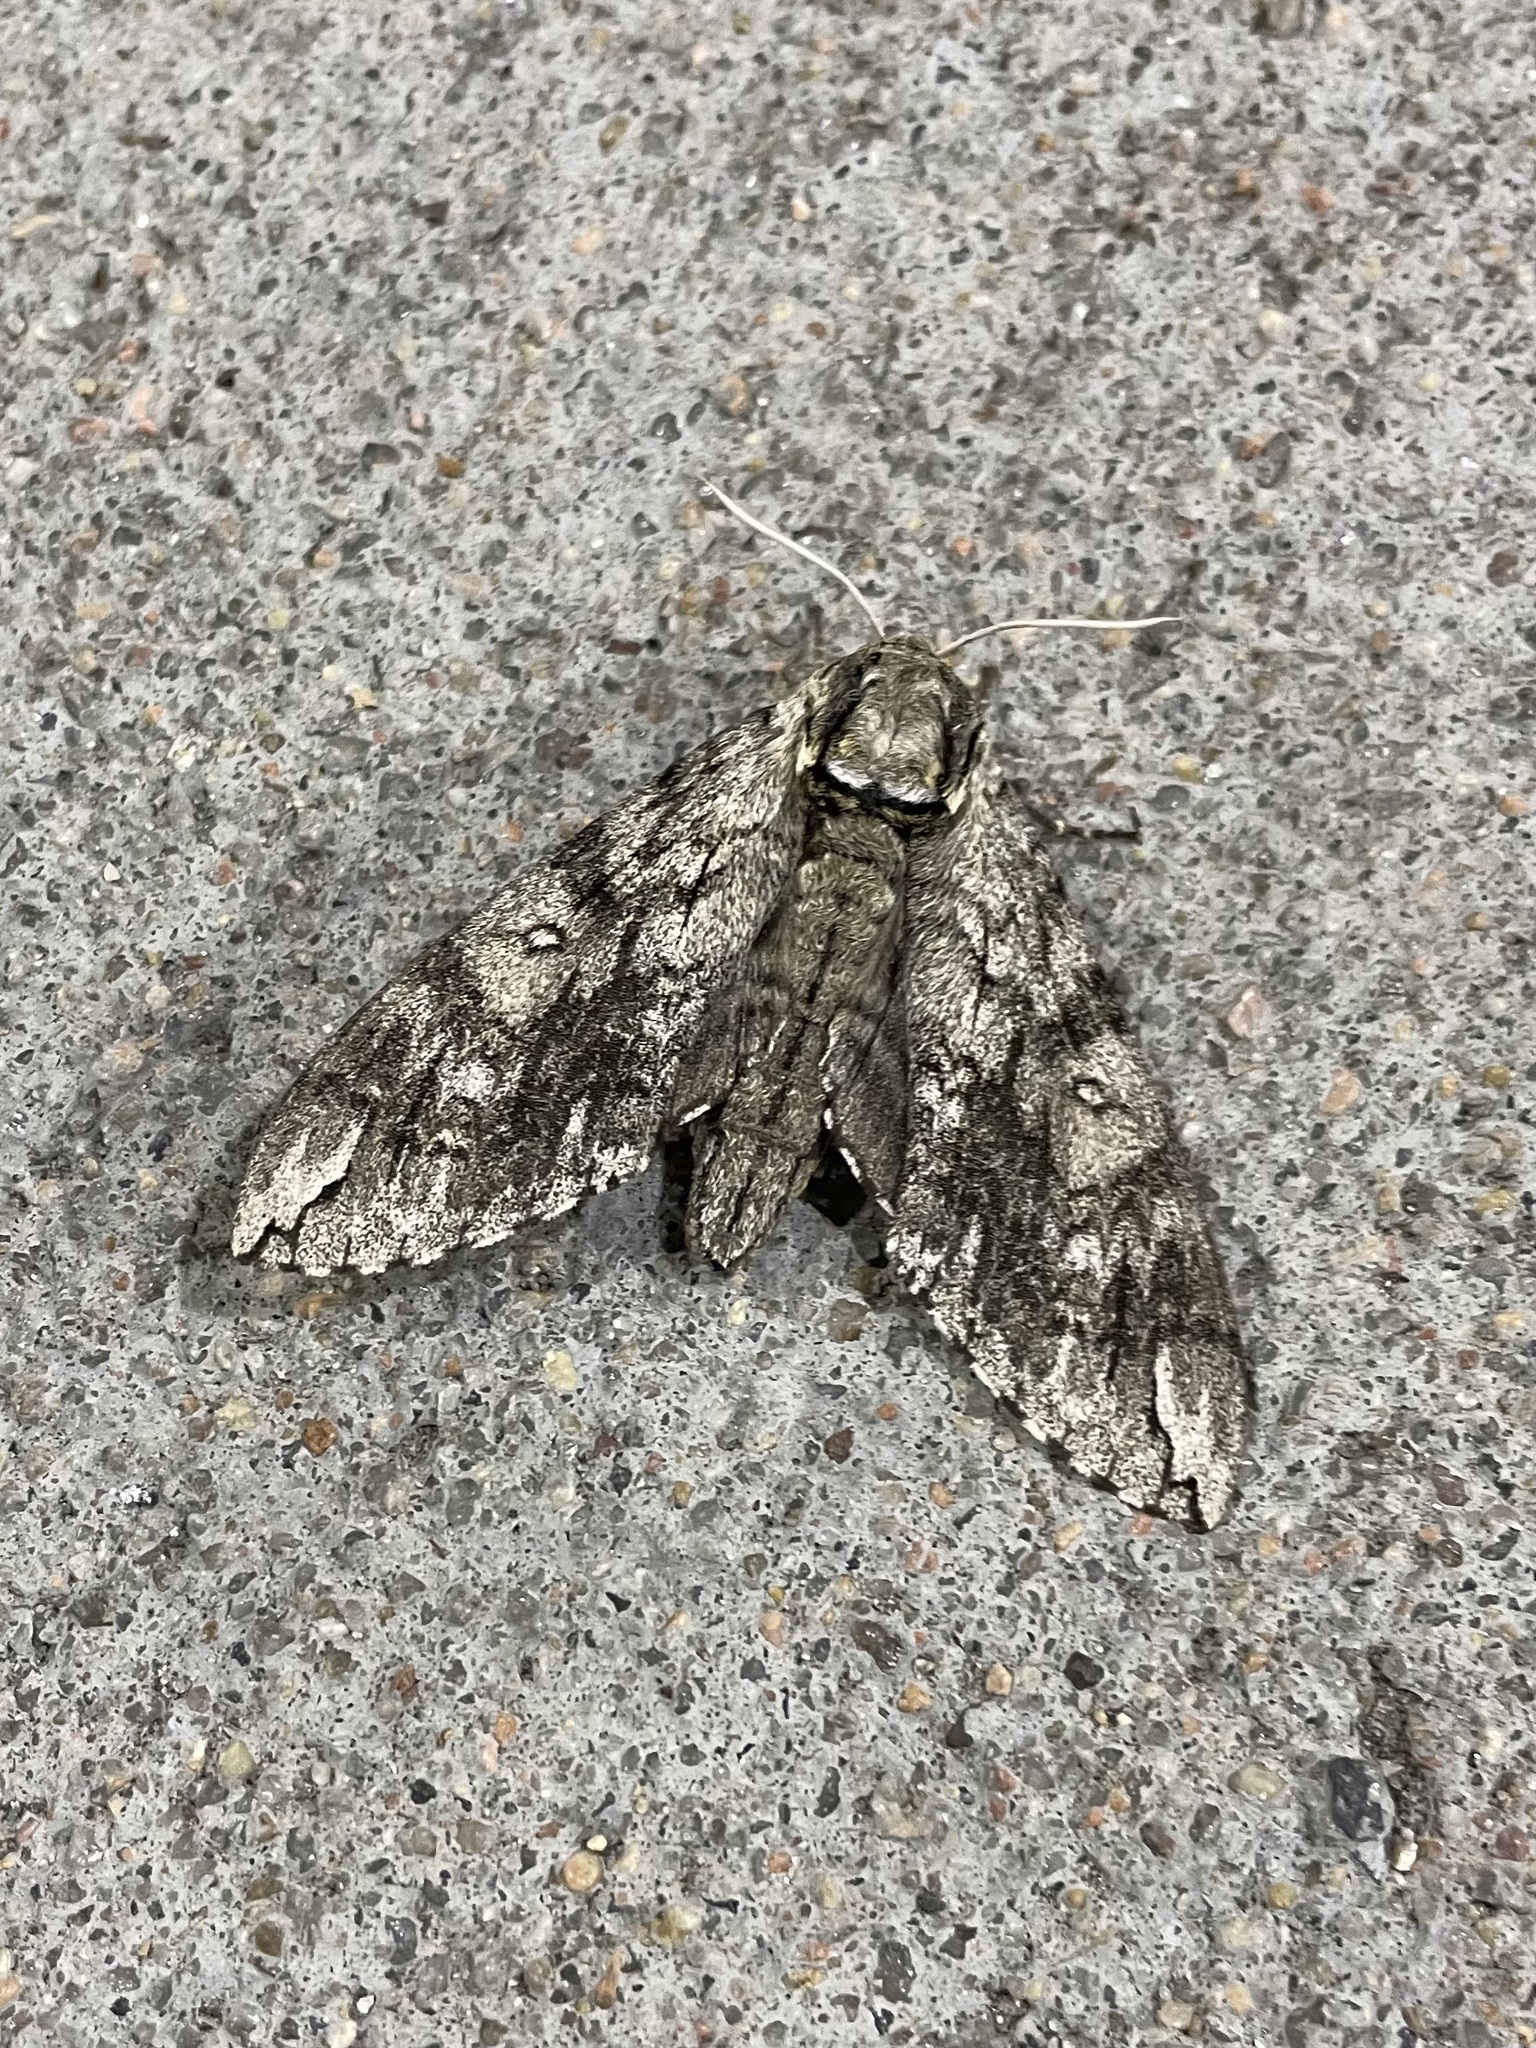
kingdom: Animalia
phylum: Arthropoda
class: Insecta
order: Lepidoptera
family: Sphingidae
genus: Ceratomia
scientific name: Ceratomia undulosa
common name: Waved sphinx
